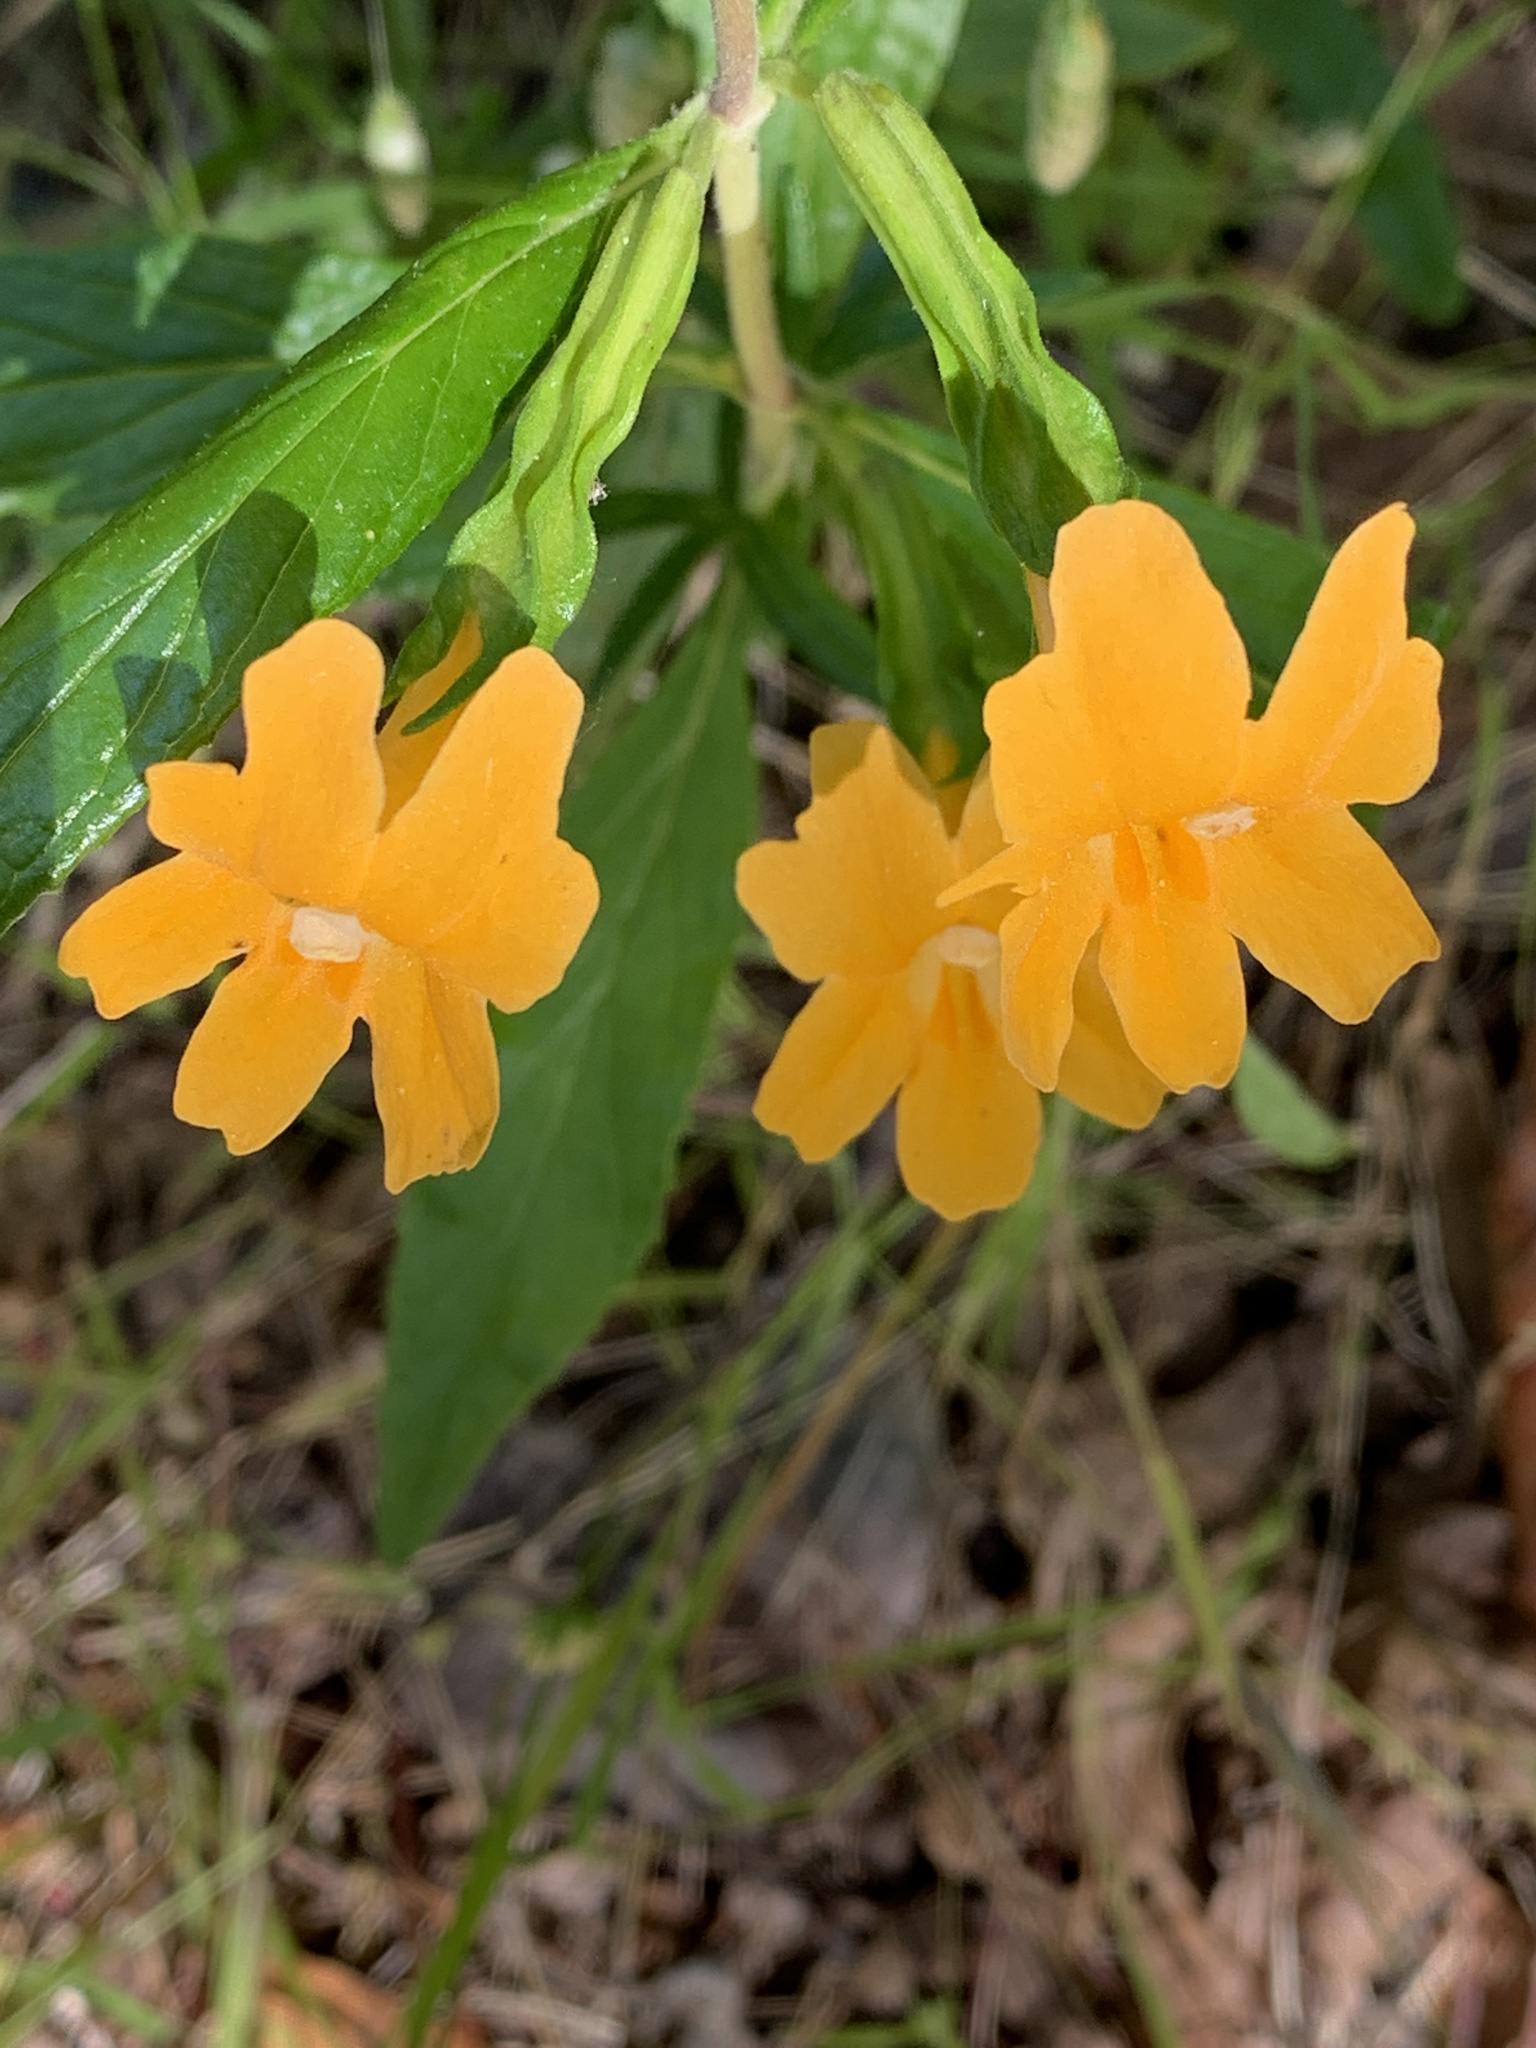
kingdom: Plantae
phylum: Tracheophyta
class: Magnoliopsida
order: Lamiales
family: Phrymaceae
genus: Diplacus
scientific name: Diplacus aurantiacus
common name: Bush monkey-flower
